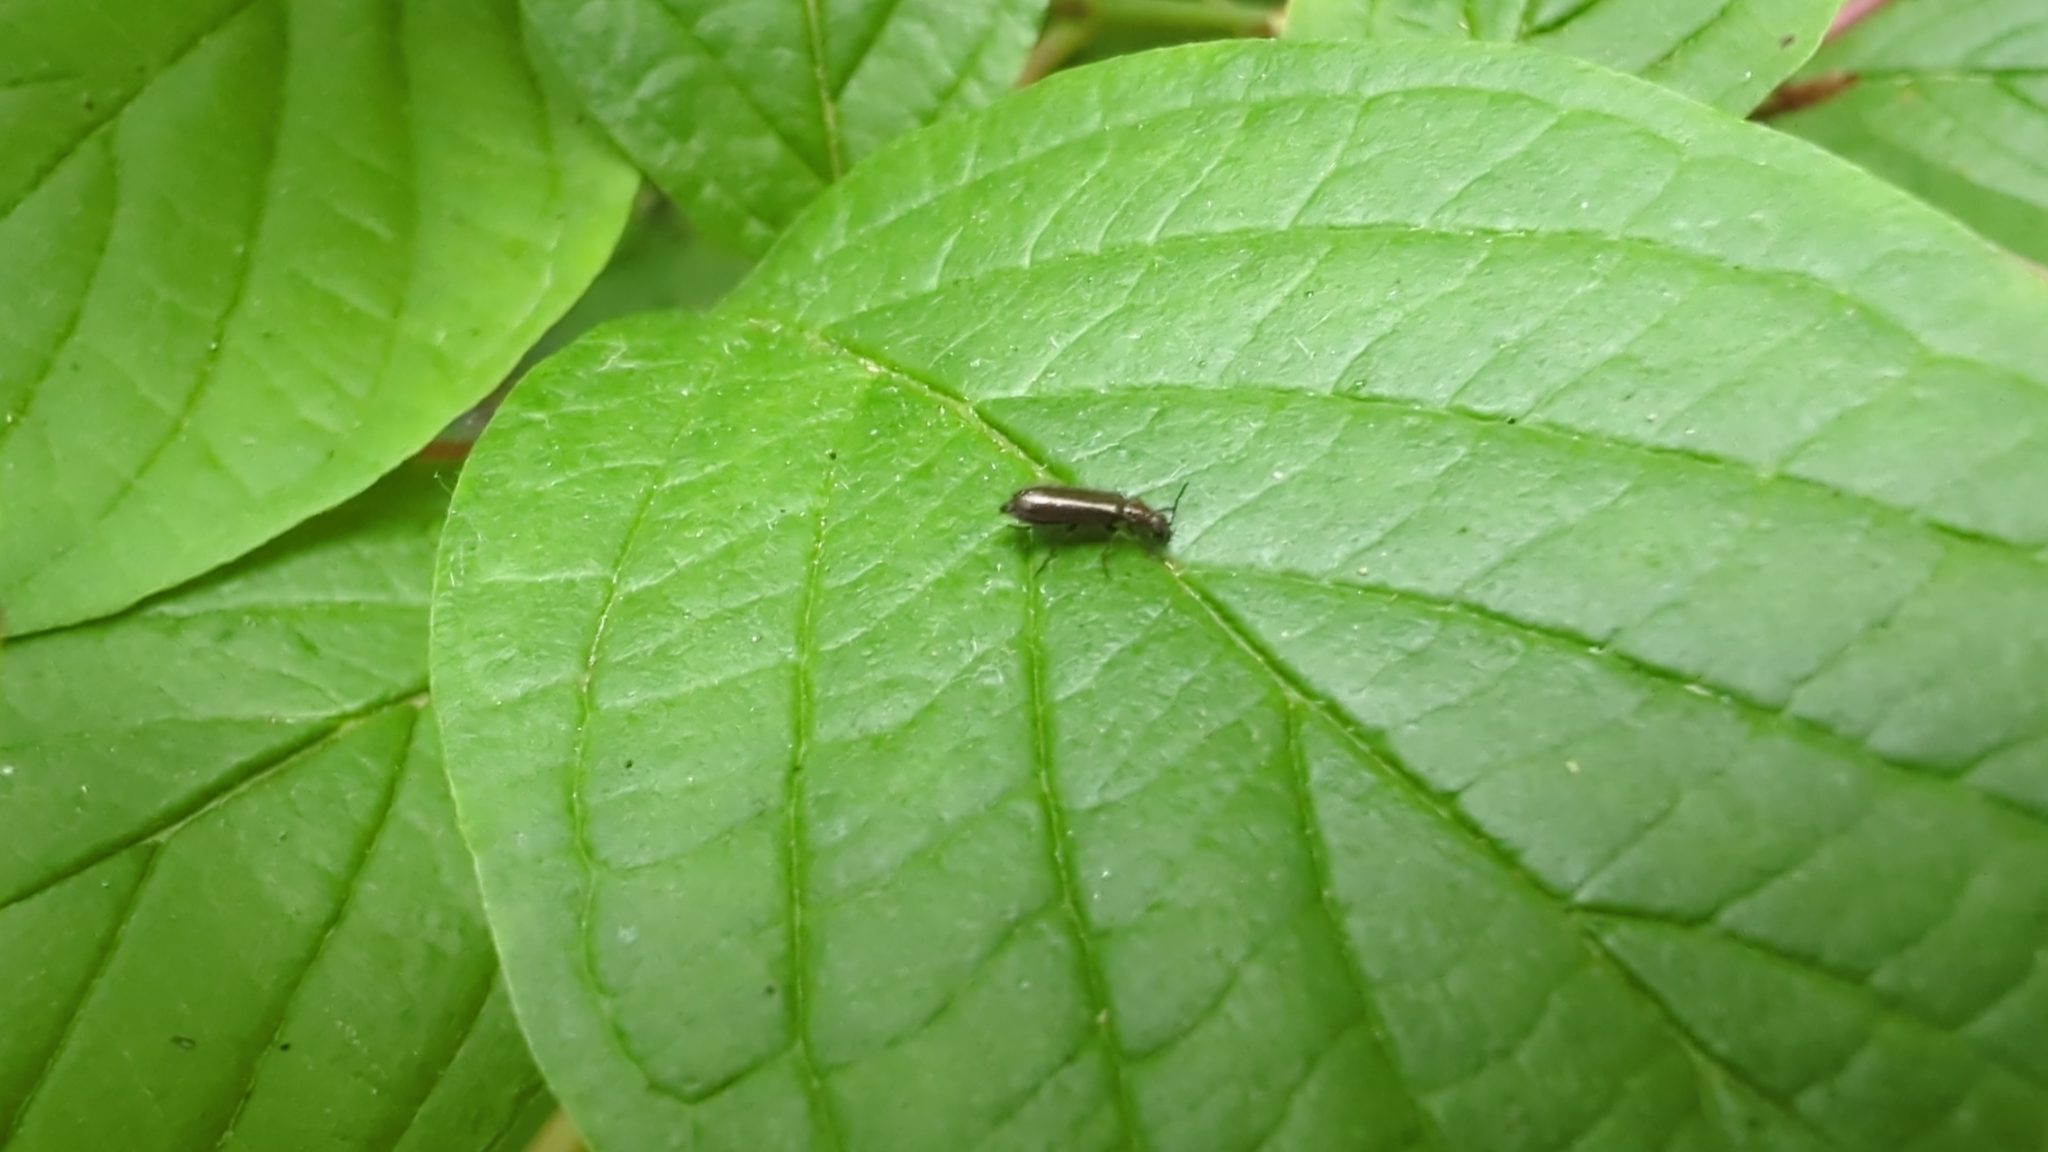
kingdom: Animalia
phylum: Arthropoda
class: Insecta
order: Coleoptera
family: Melyridae
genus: Dasytes
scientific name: Dasytes plumbeus
